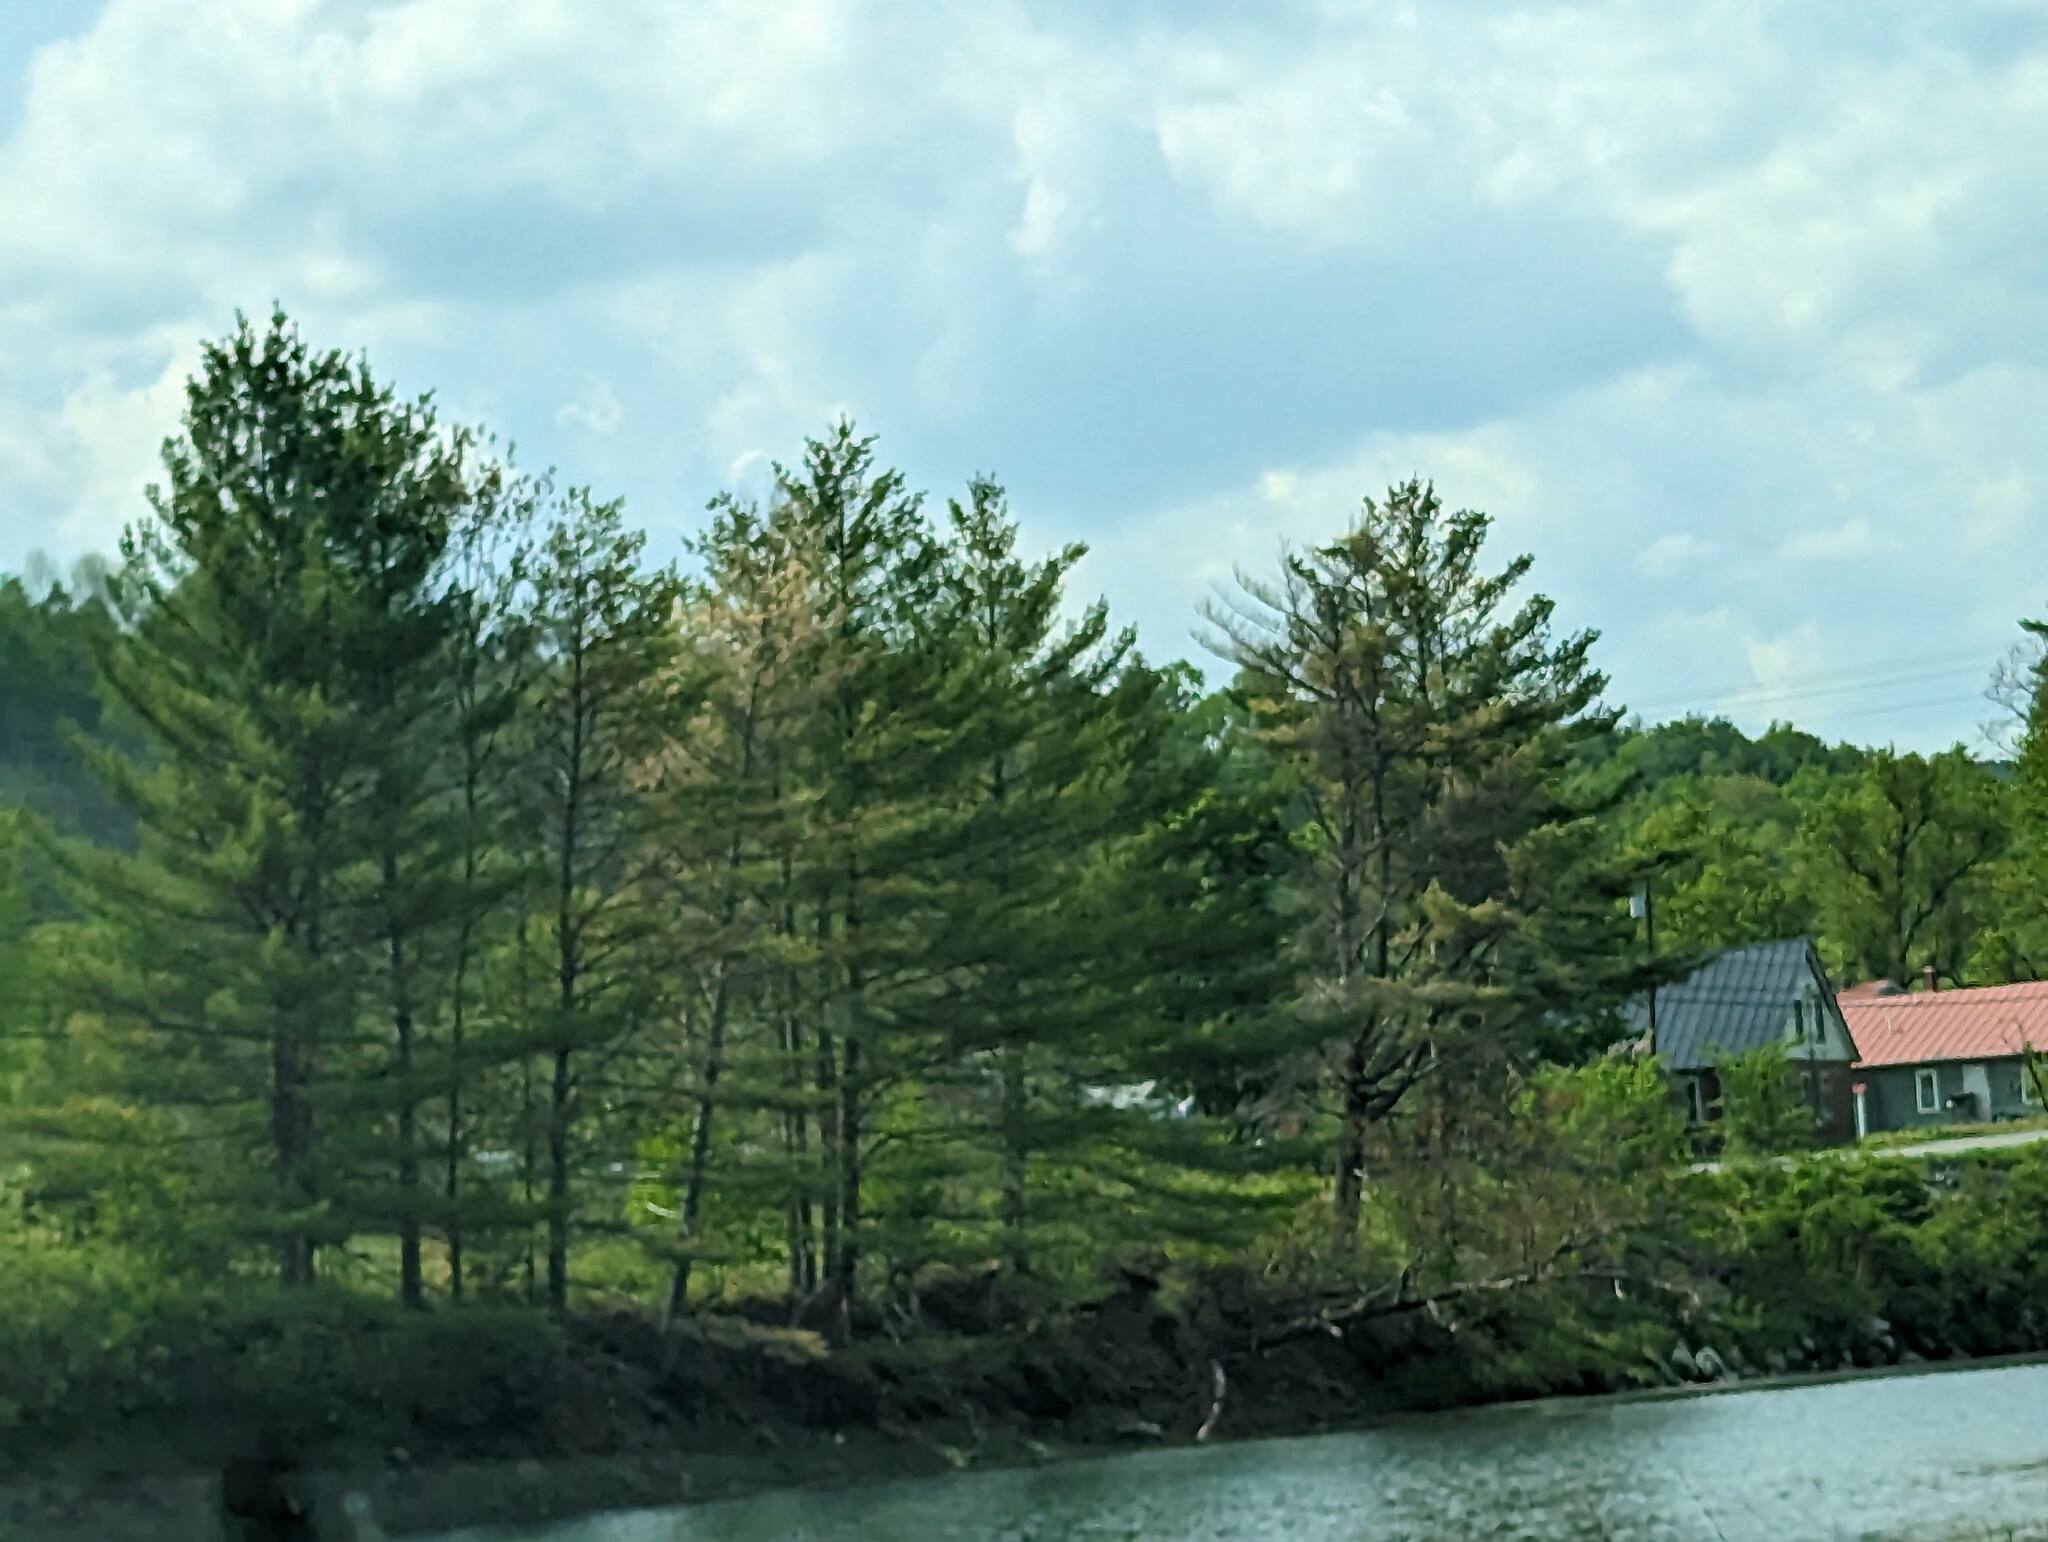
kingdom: Plantae
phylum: Tracheophyta
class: Pinopsida
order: Pinales
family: Pinaceae
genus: Pinus
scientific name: Pinus strobus
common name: Weymouth pine
